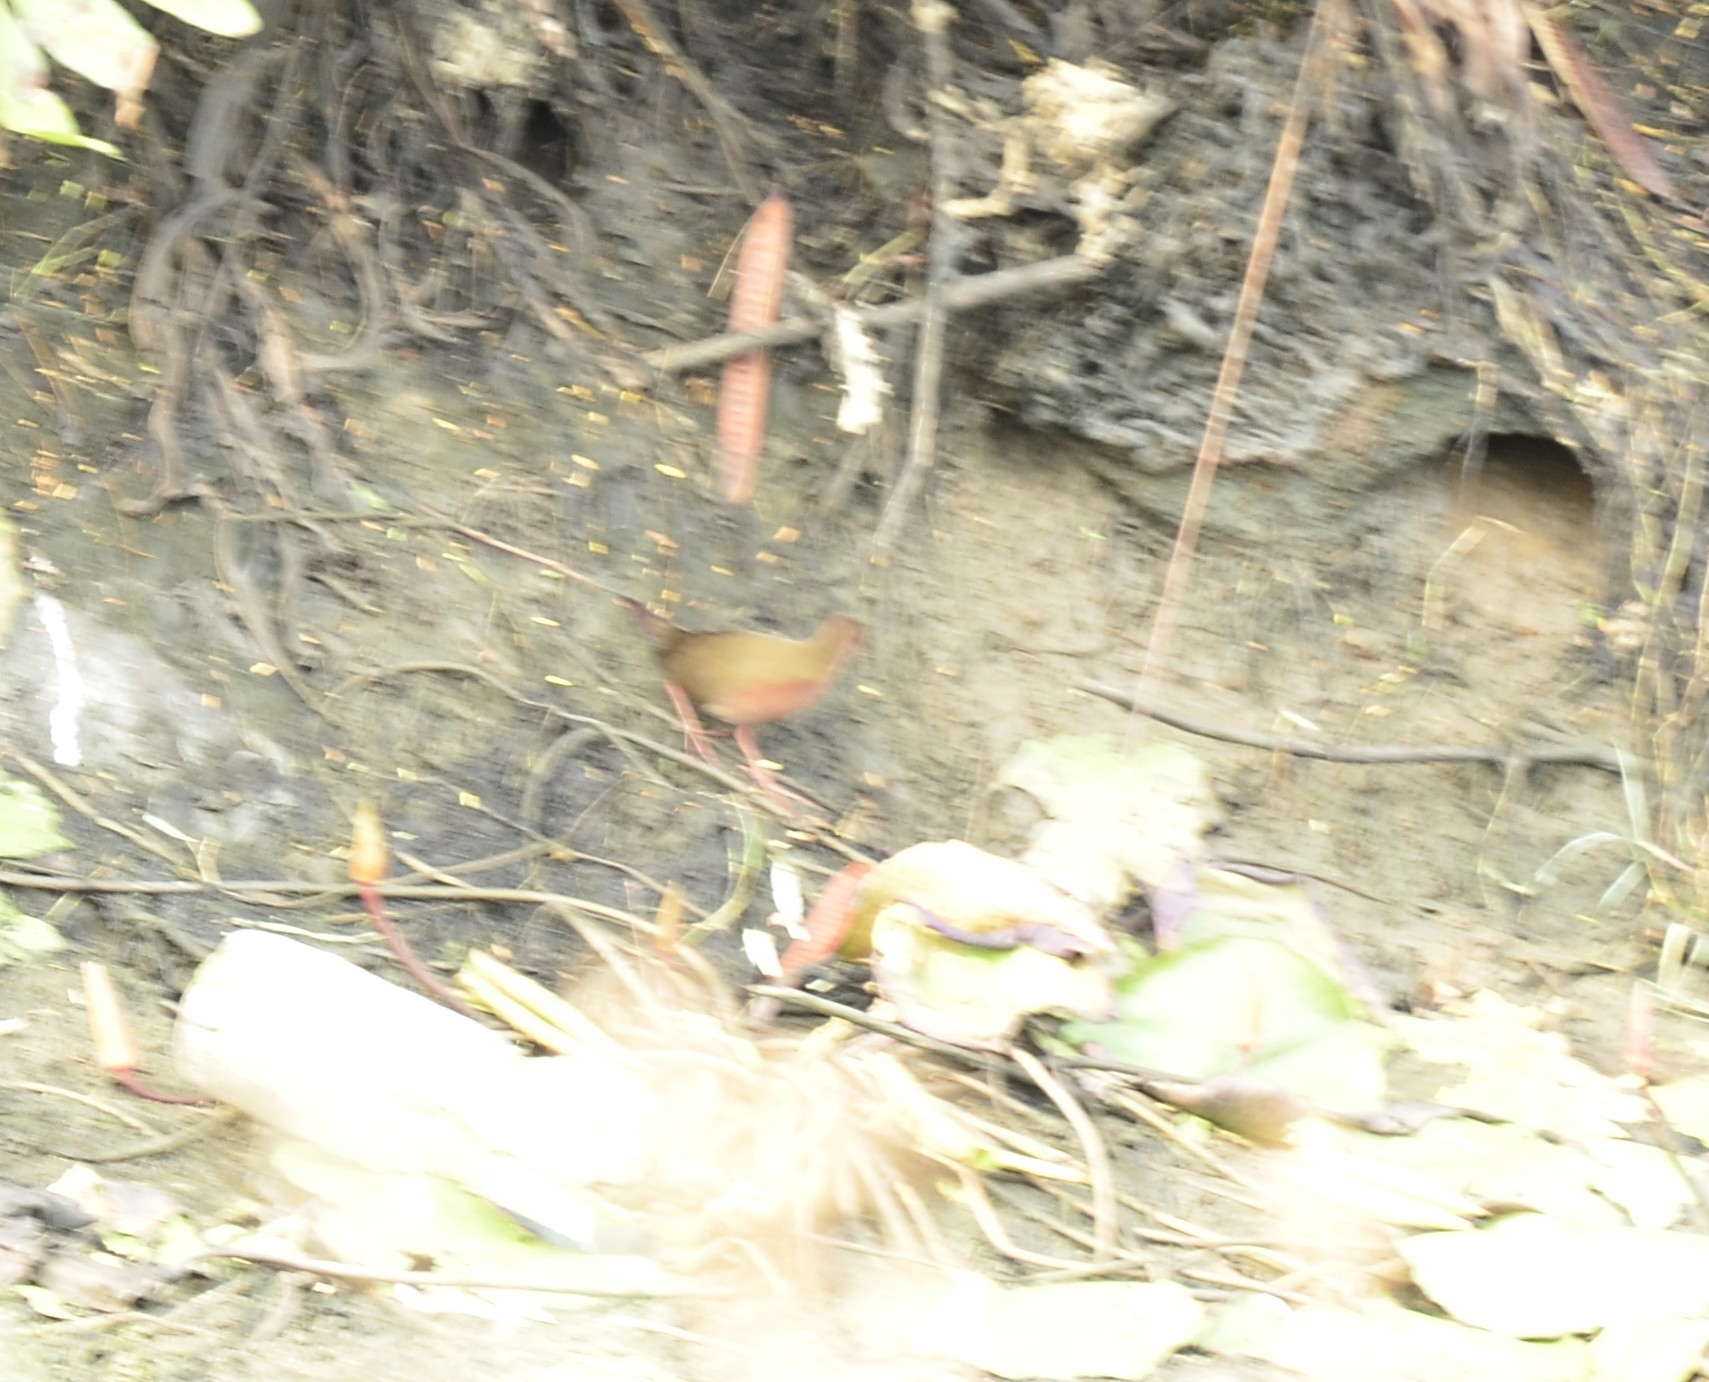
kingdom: Animalia
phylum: Chordata
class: Aves
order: Gruiformes
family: Rallidae
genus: Porzana
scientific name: Porzana fusca
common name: Ruddy-breasted crake
